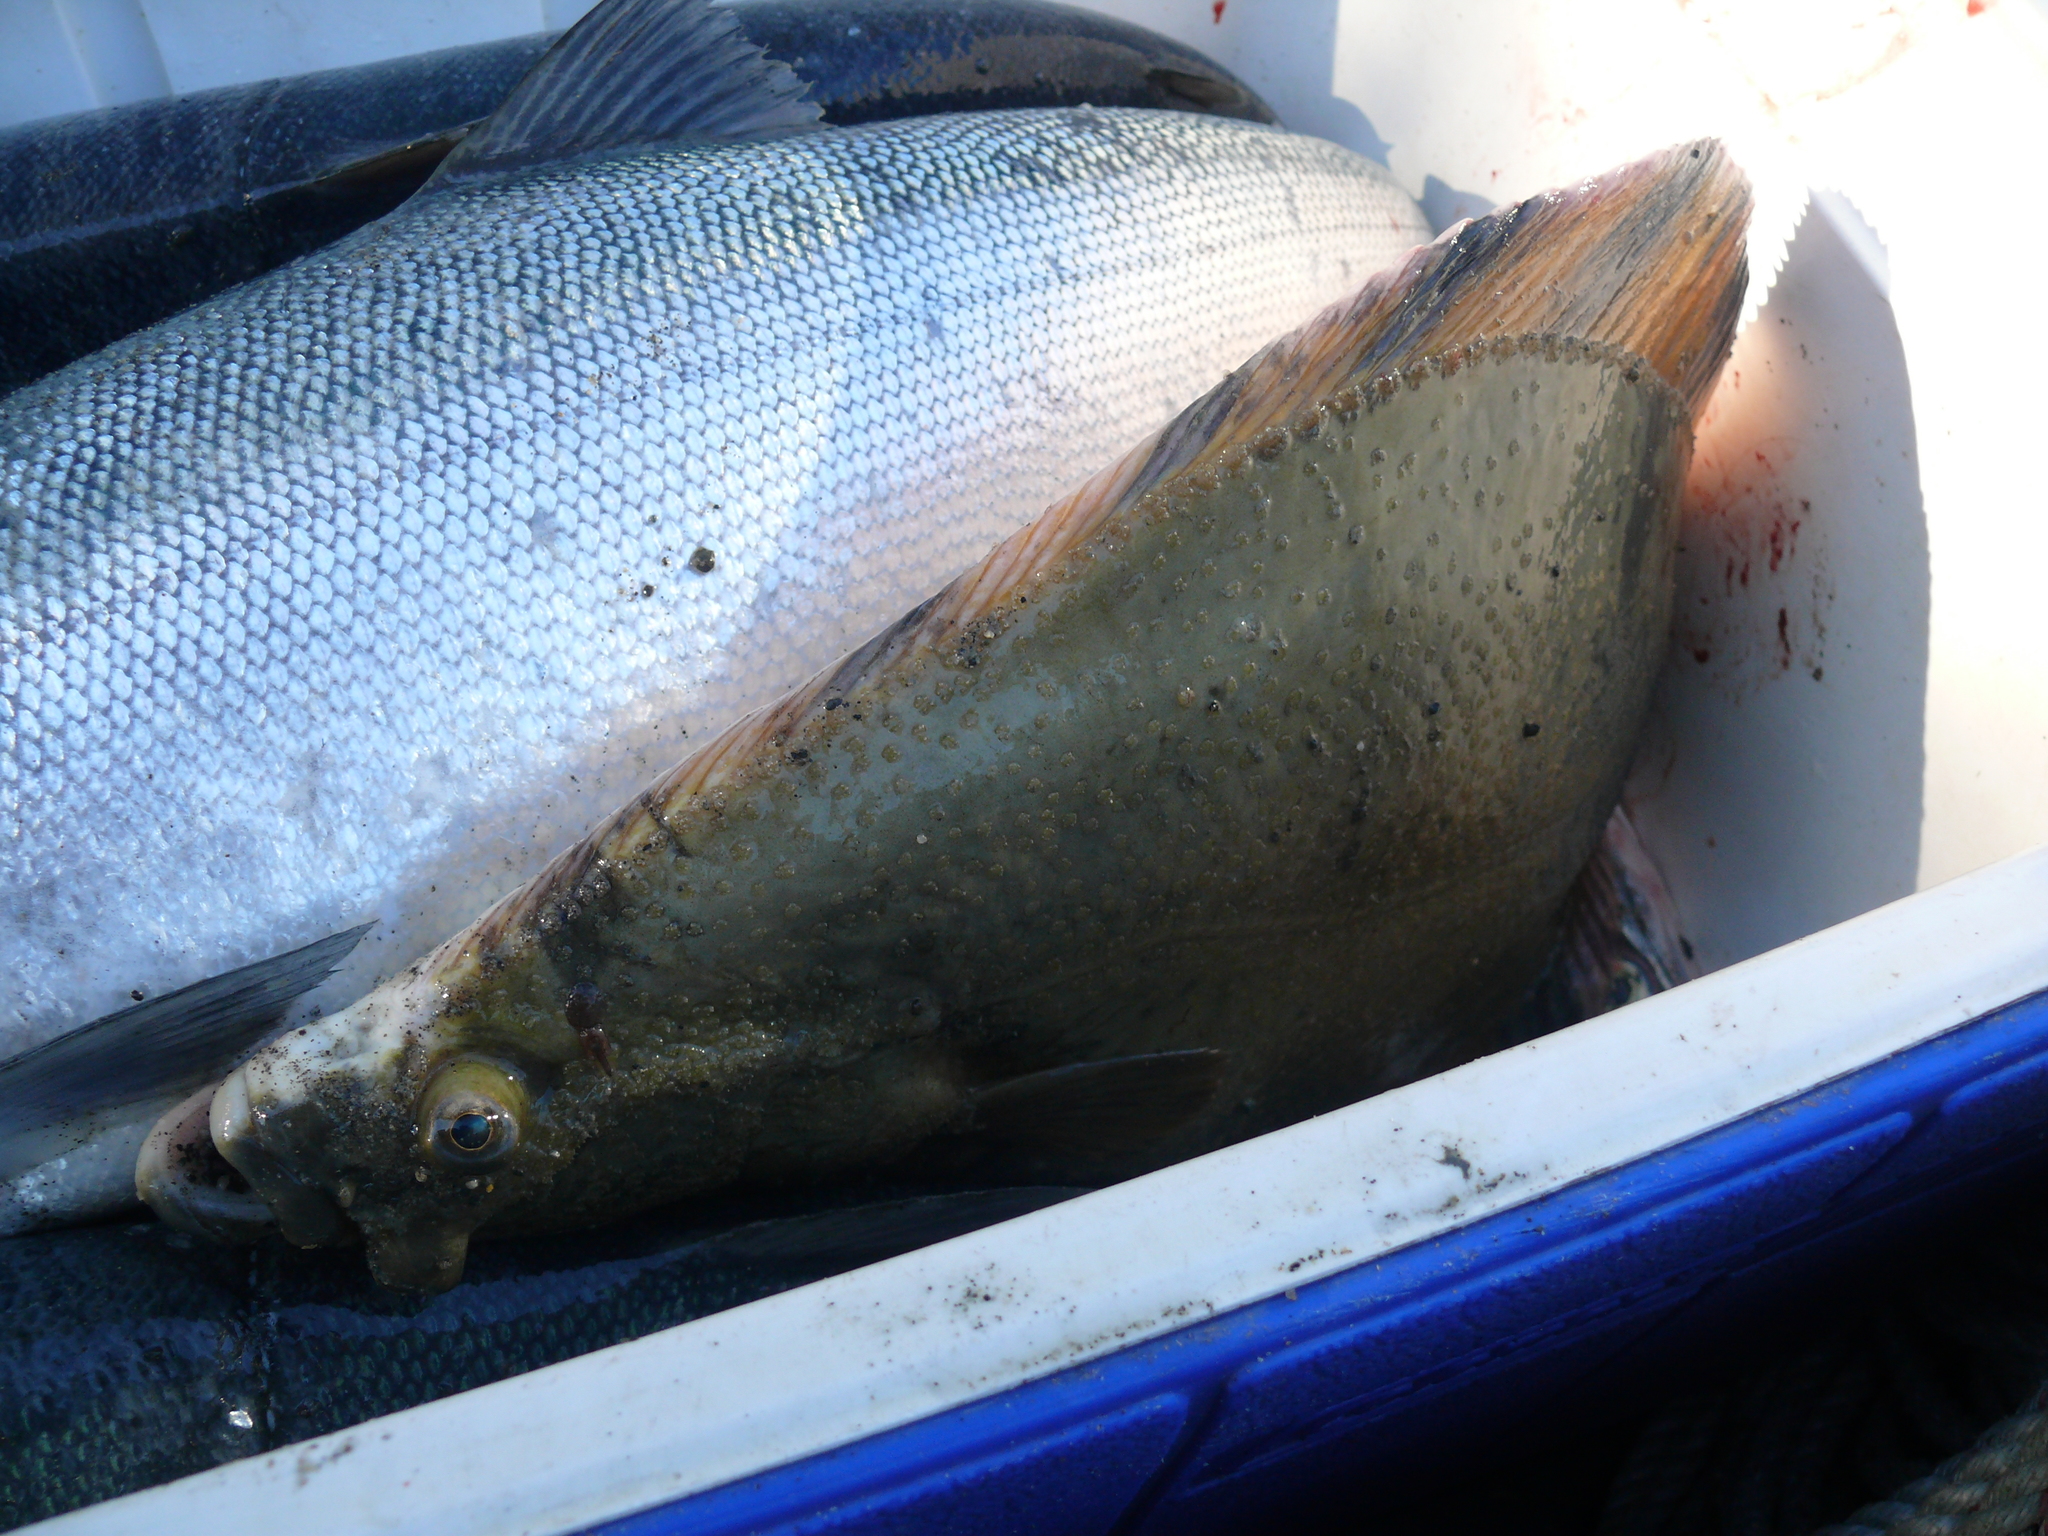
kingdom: Animalia
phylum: Chordata
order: Pleuronectiformes
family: Pleuronectidae
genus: Platichthys
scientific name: Platichthys stellatus
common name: Starry flounder
